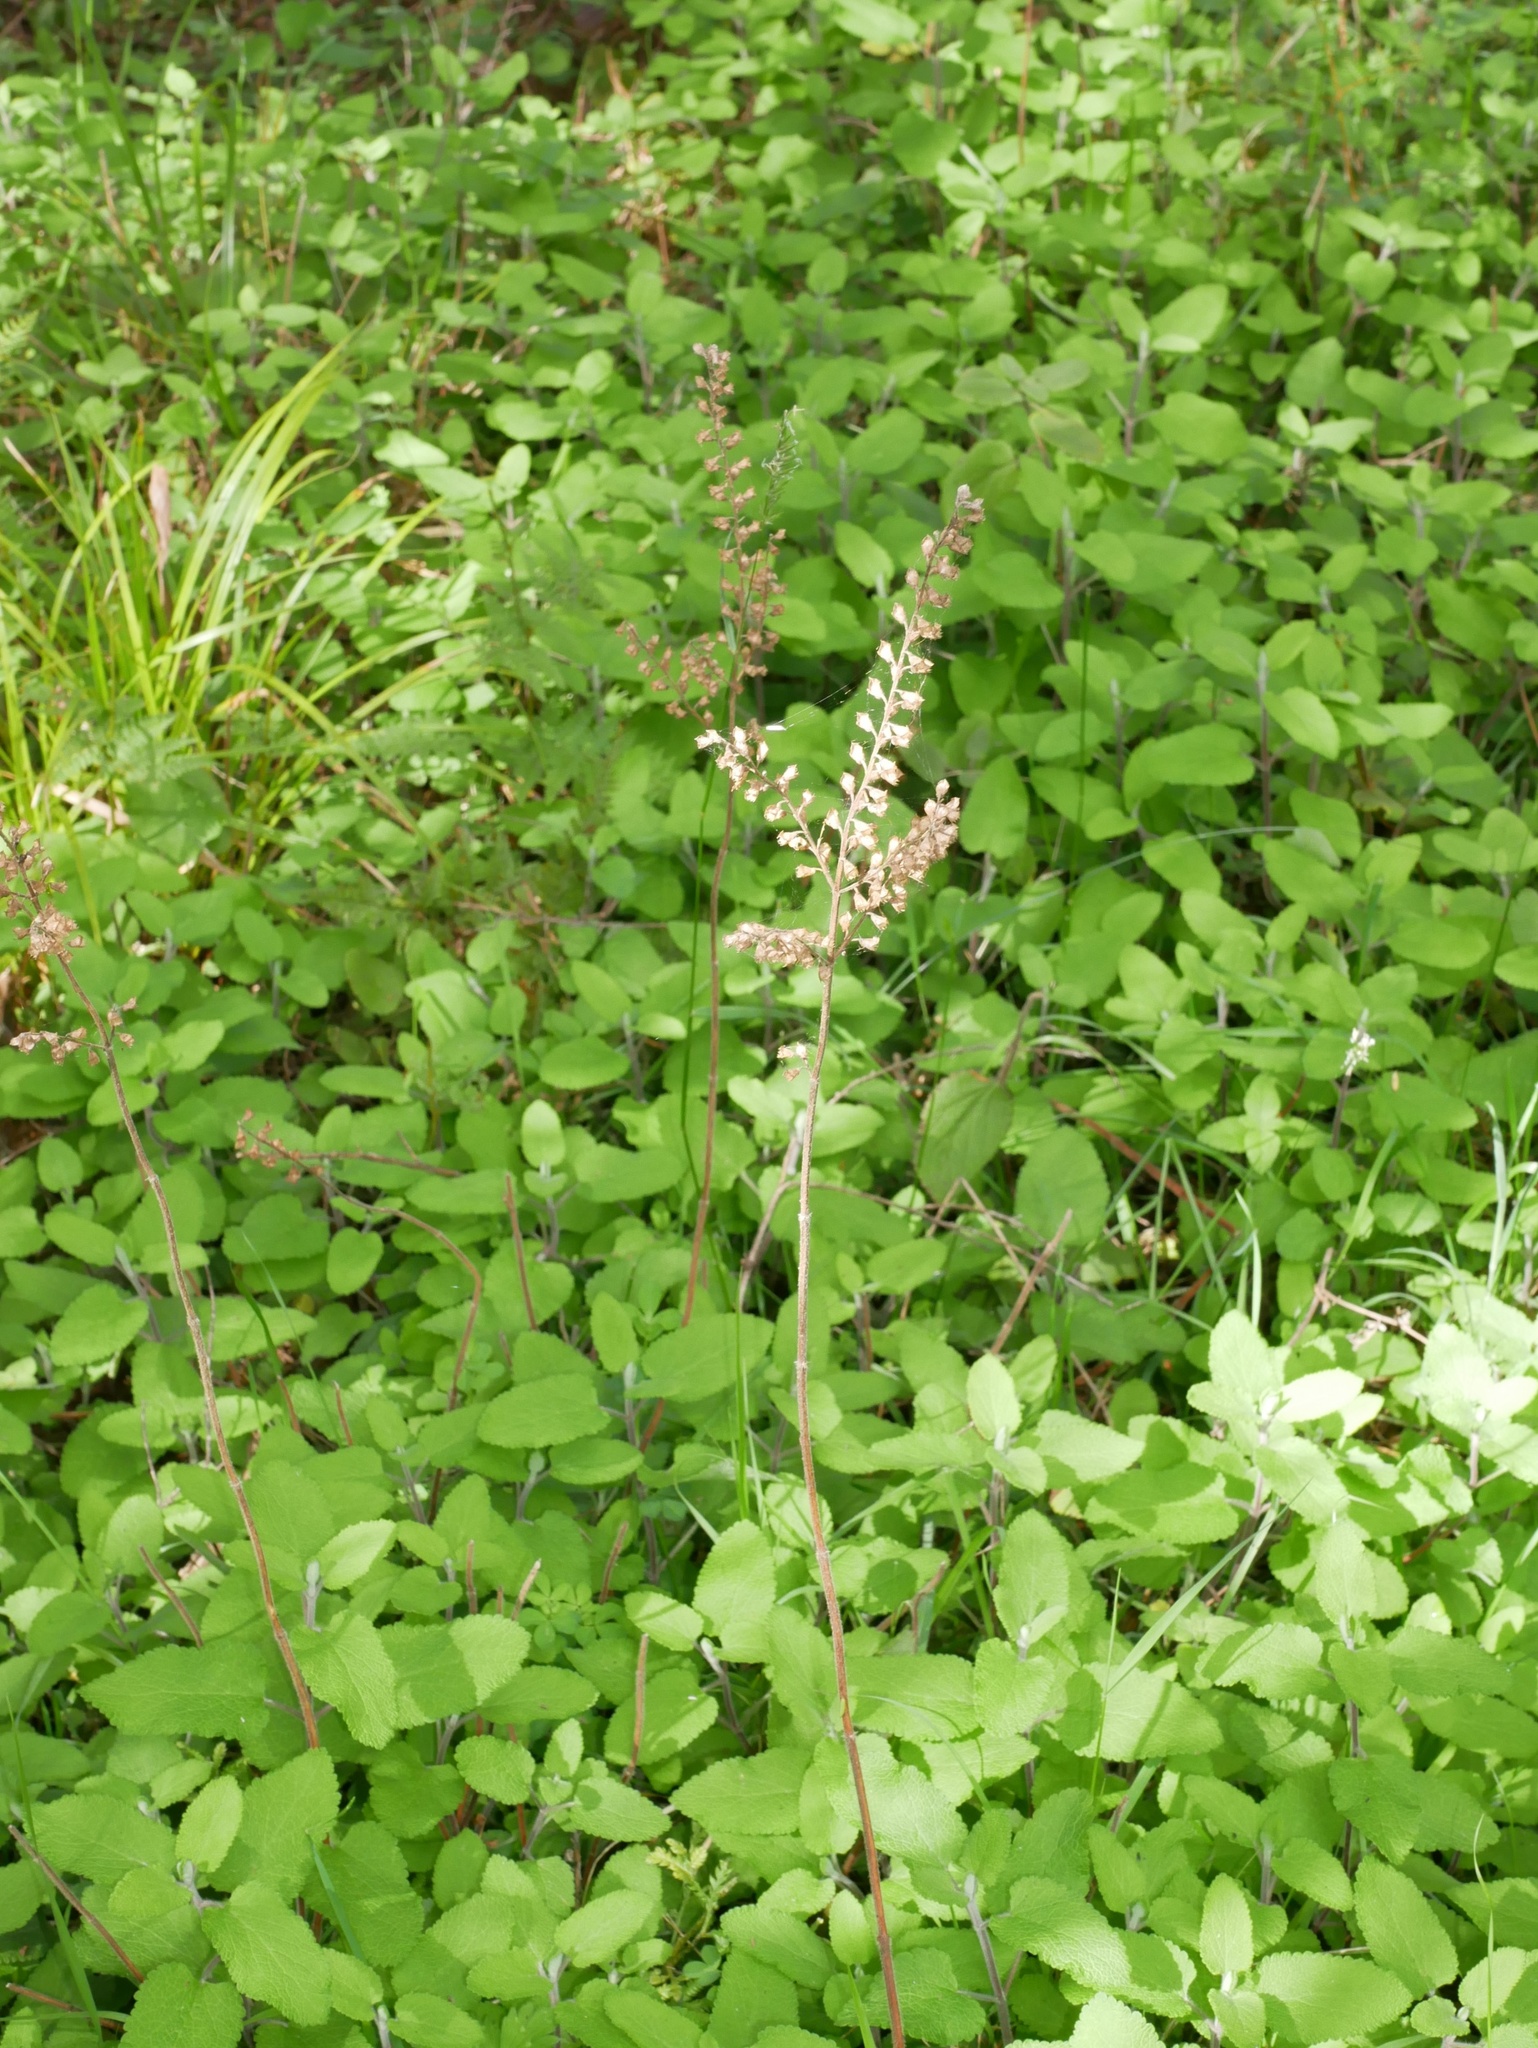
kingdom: Plantae
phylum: Tracheophyta
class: Magnoliopsida
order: Lamiales
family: Lamiaceae
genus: Teucrium
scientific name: Teucrium scorodonia
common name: Woodland germander
